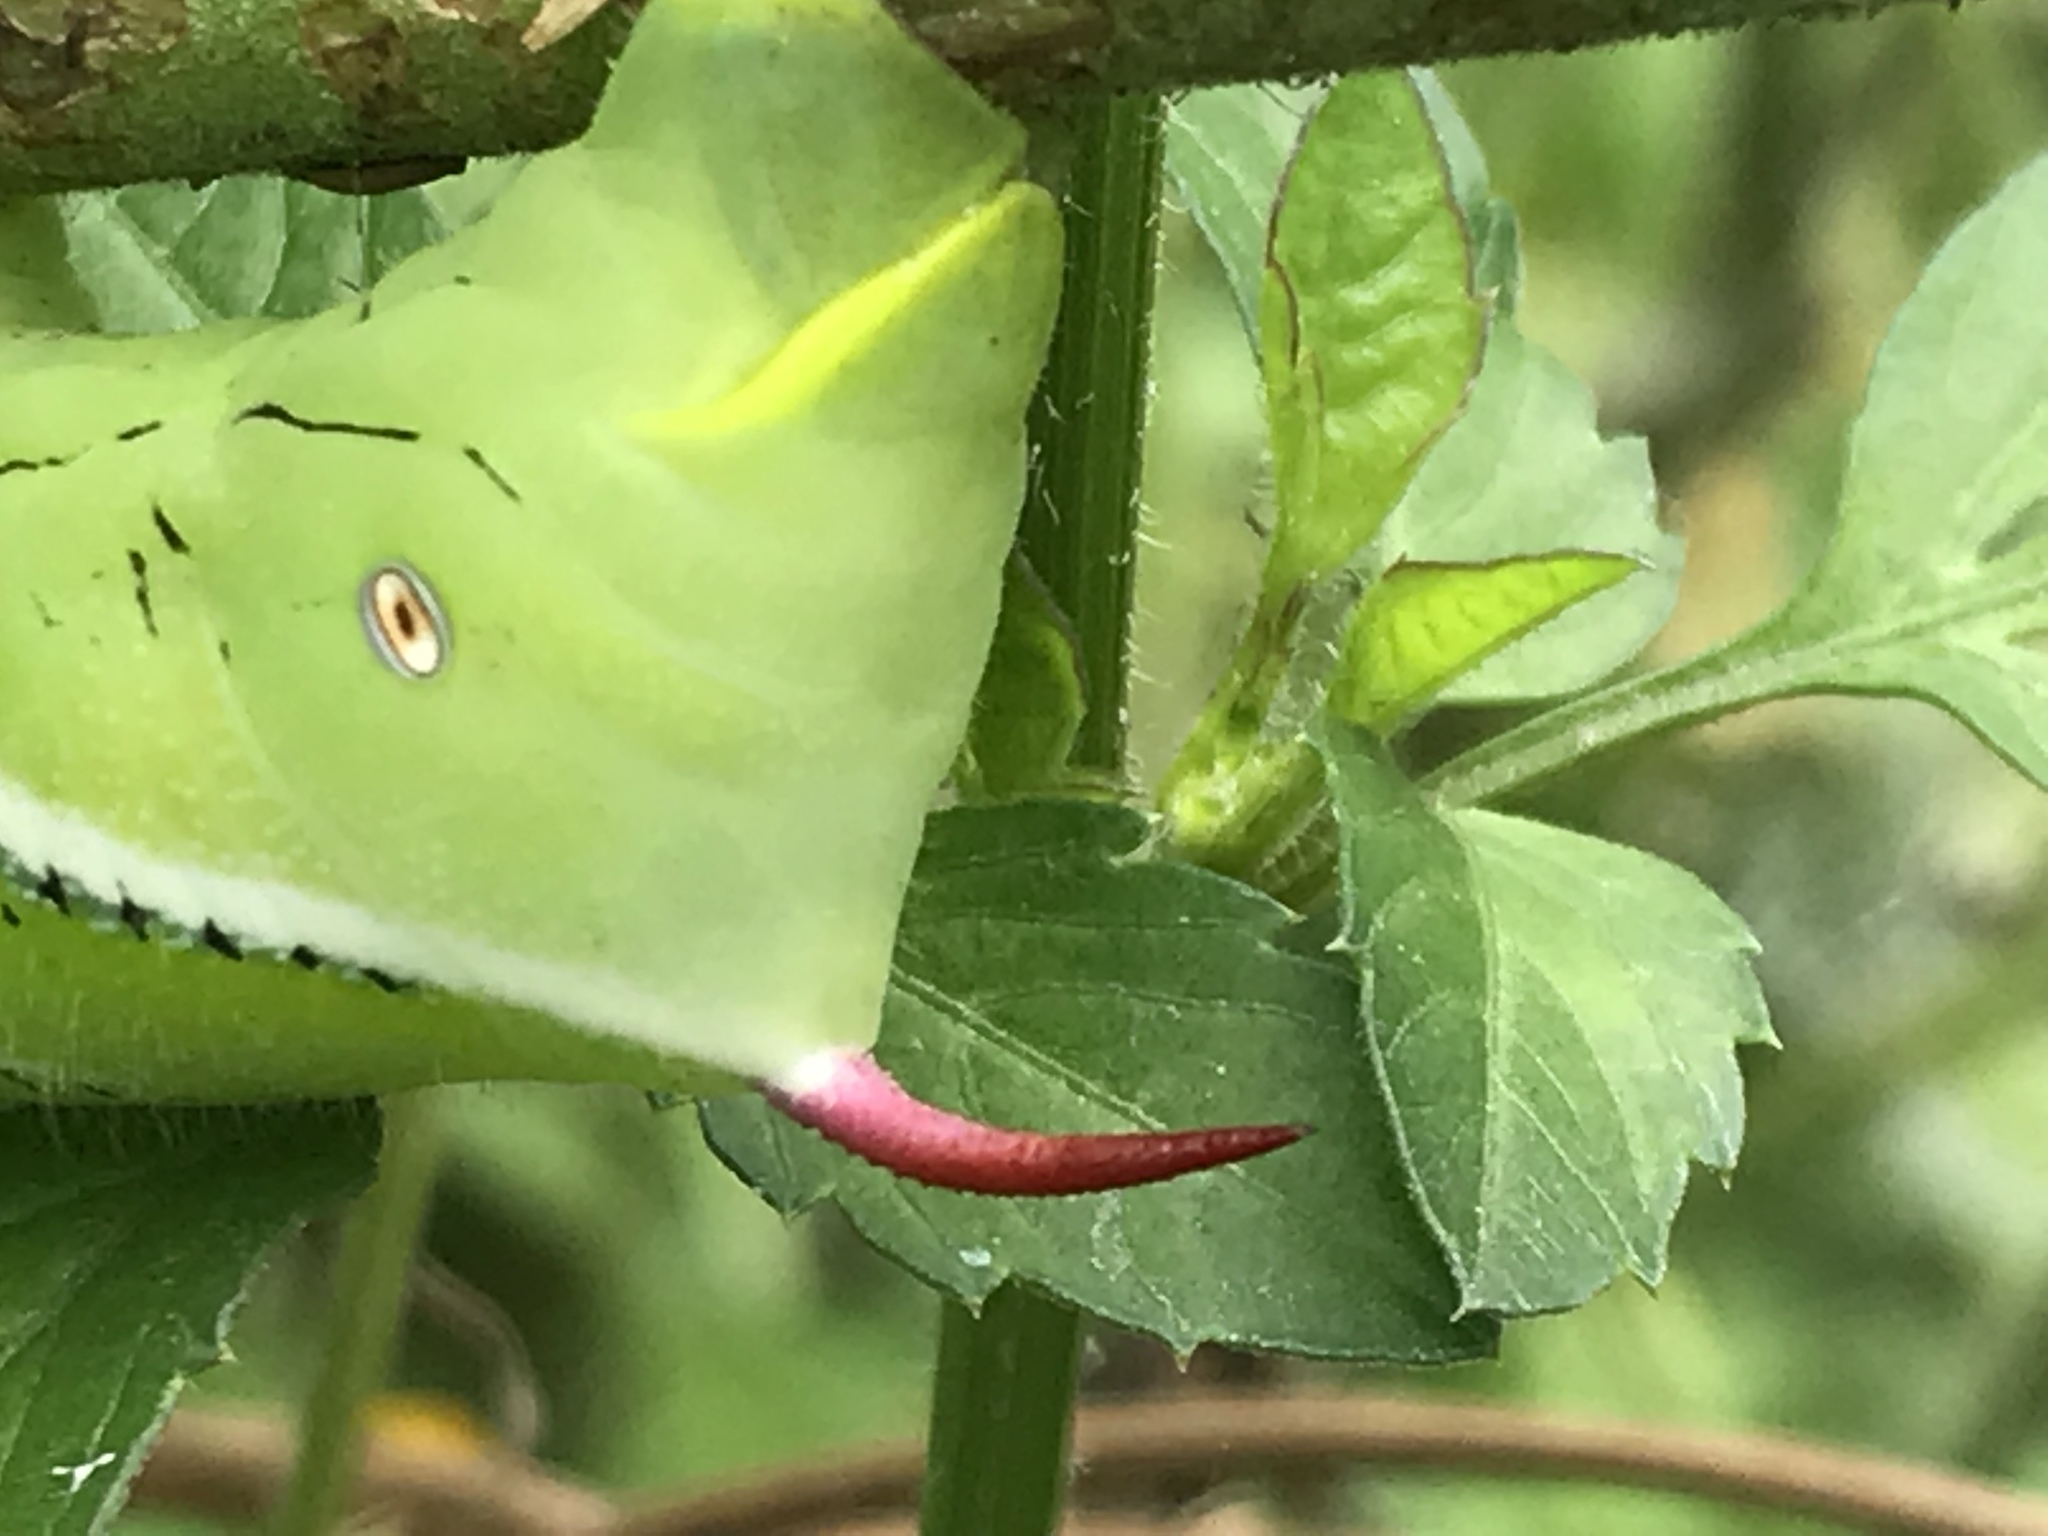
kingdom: Animalia
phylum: Arthropoda
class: Insecta
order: Lepidoptera
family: Sphingidae
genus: Manduca
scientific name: Manduca sexta
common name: Carolina sphinx
